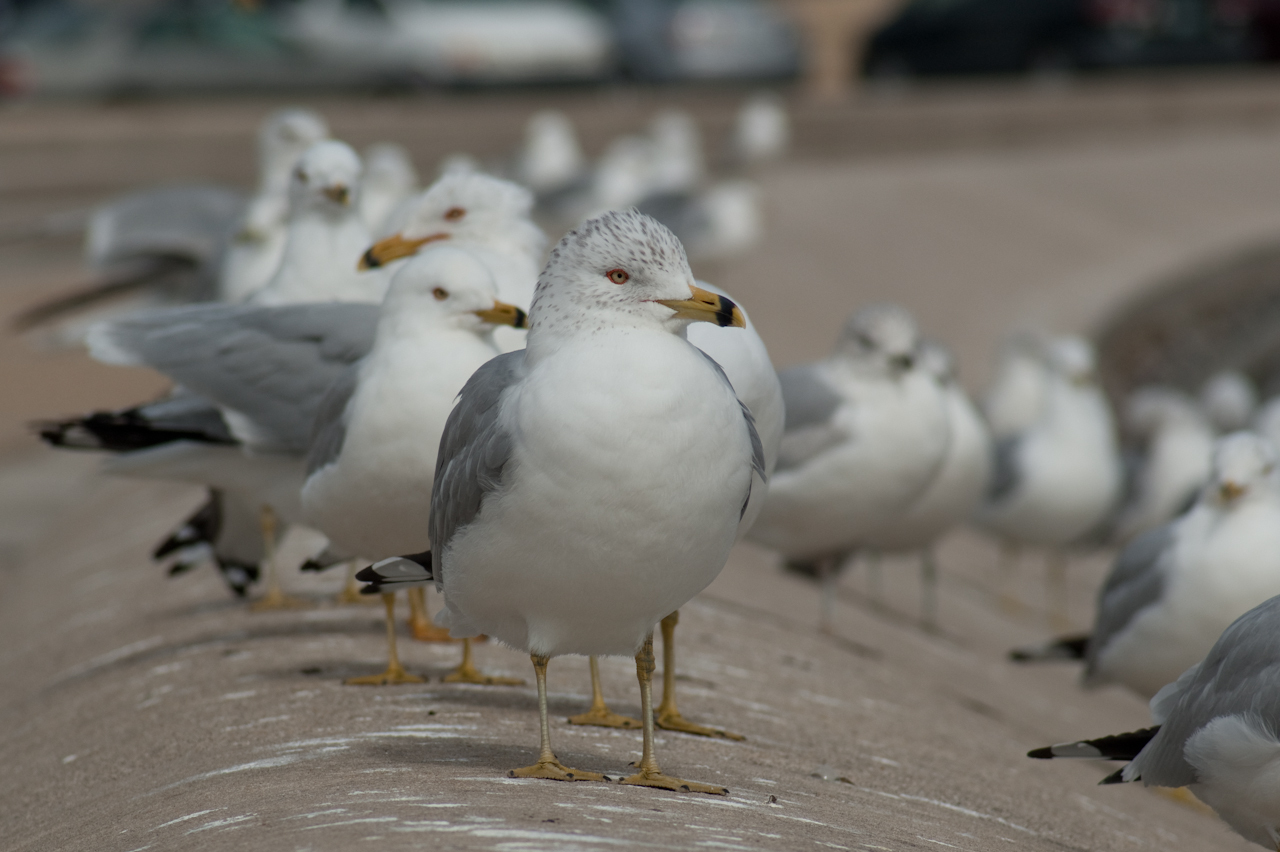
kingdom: Animalia
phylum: Chordata
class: Aves
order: Charadriiformes
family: Laridae
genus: Larus
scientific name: Larus delawarensis
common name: Ring-billed gull
